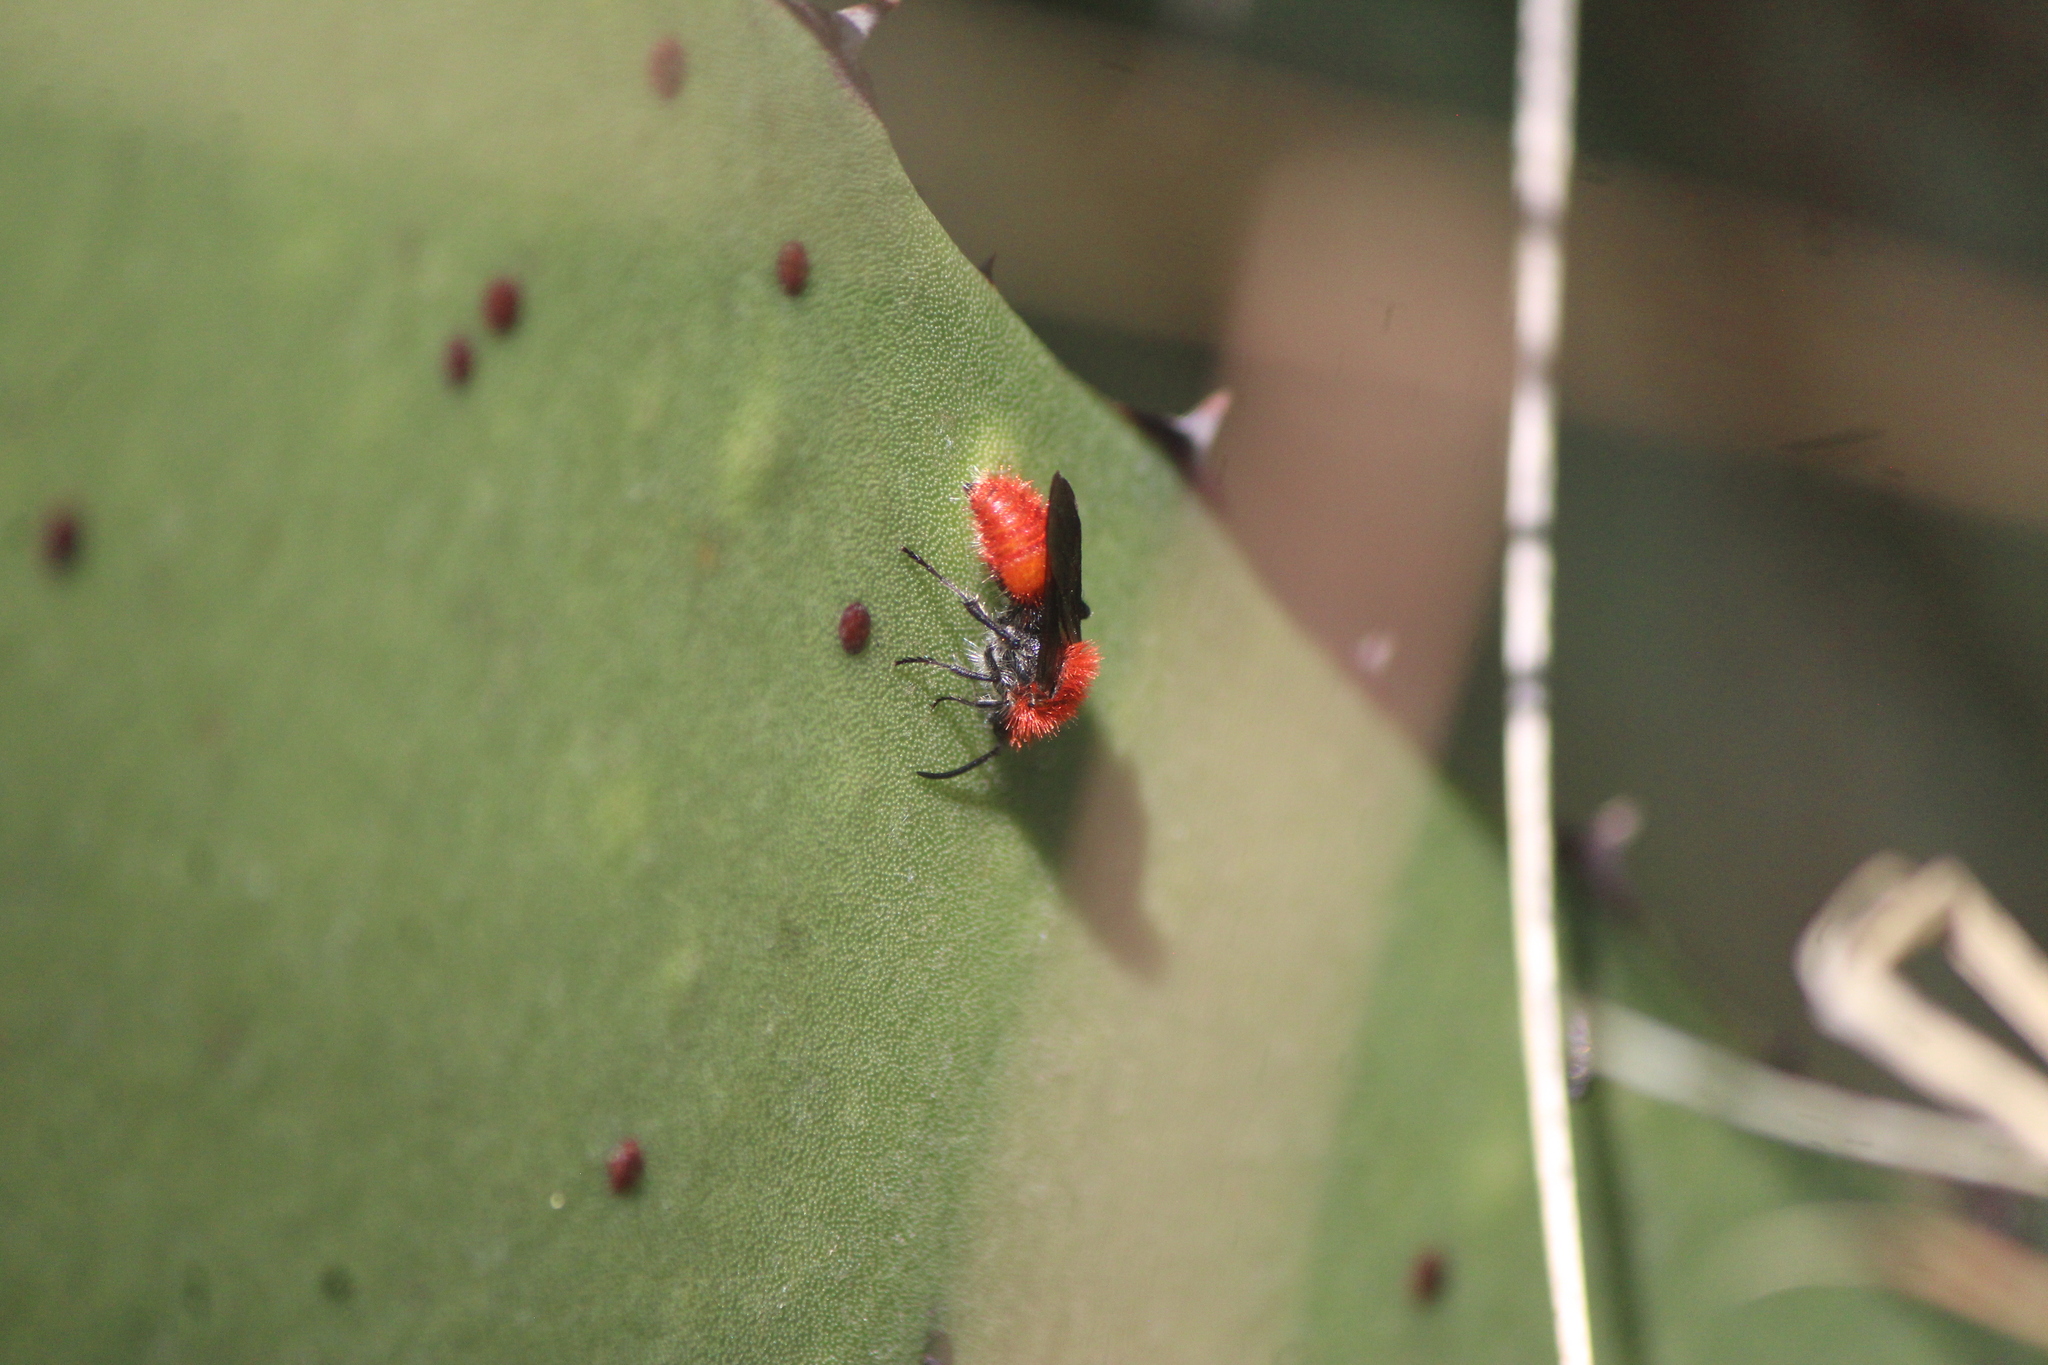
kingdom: Animalia
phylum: Arthropoda
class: Insecta
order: Hymenoptera
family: Mutillidae
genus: Dasymutilla
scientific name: Dasymutilla
